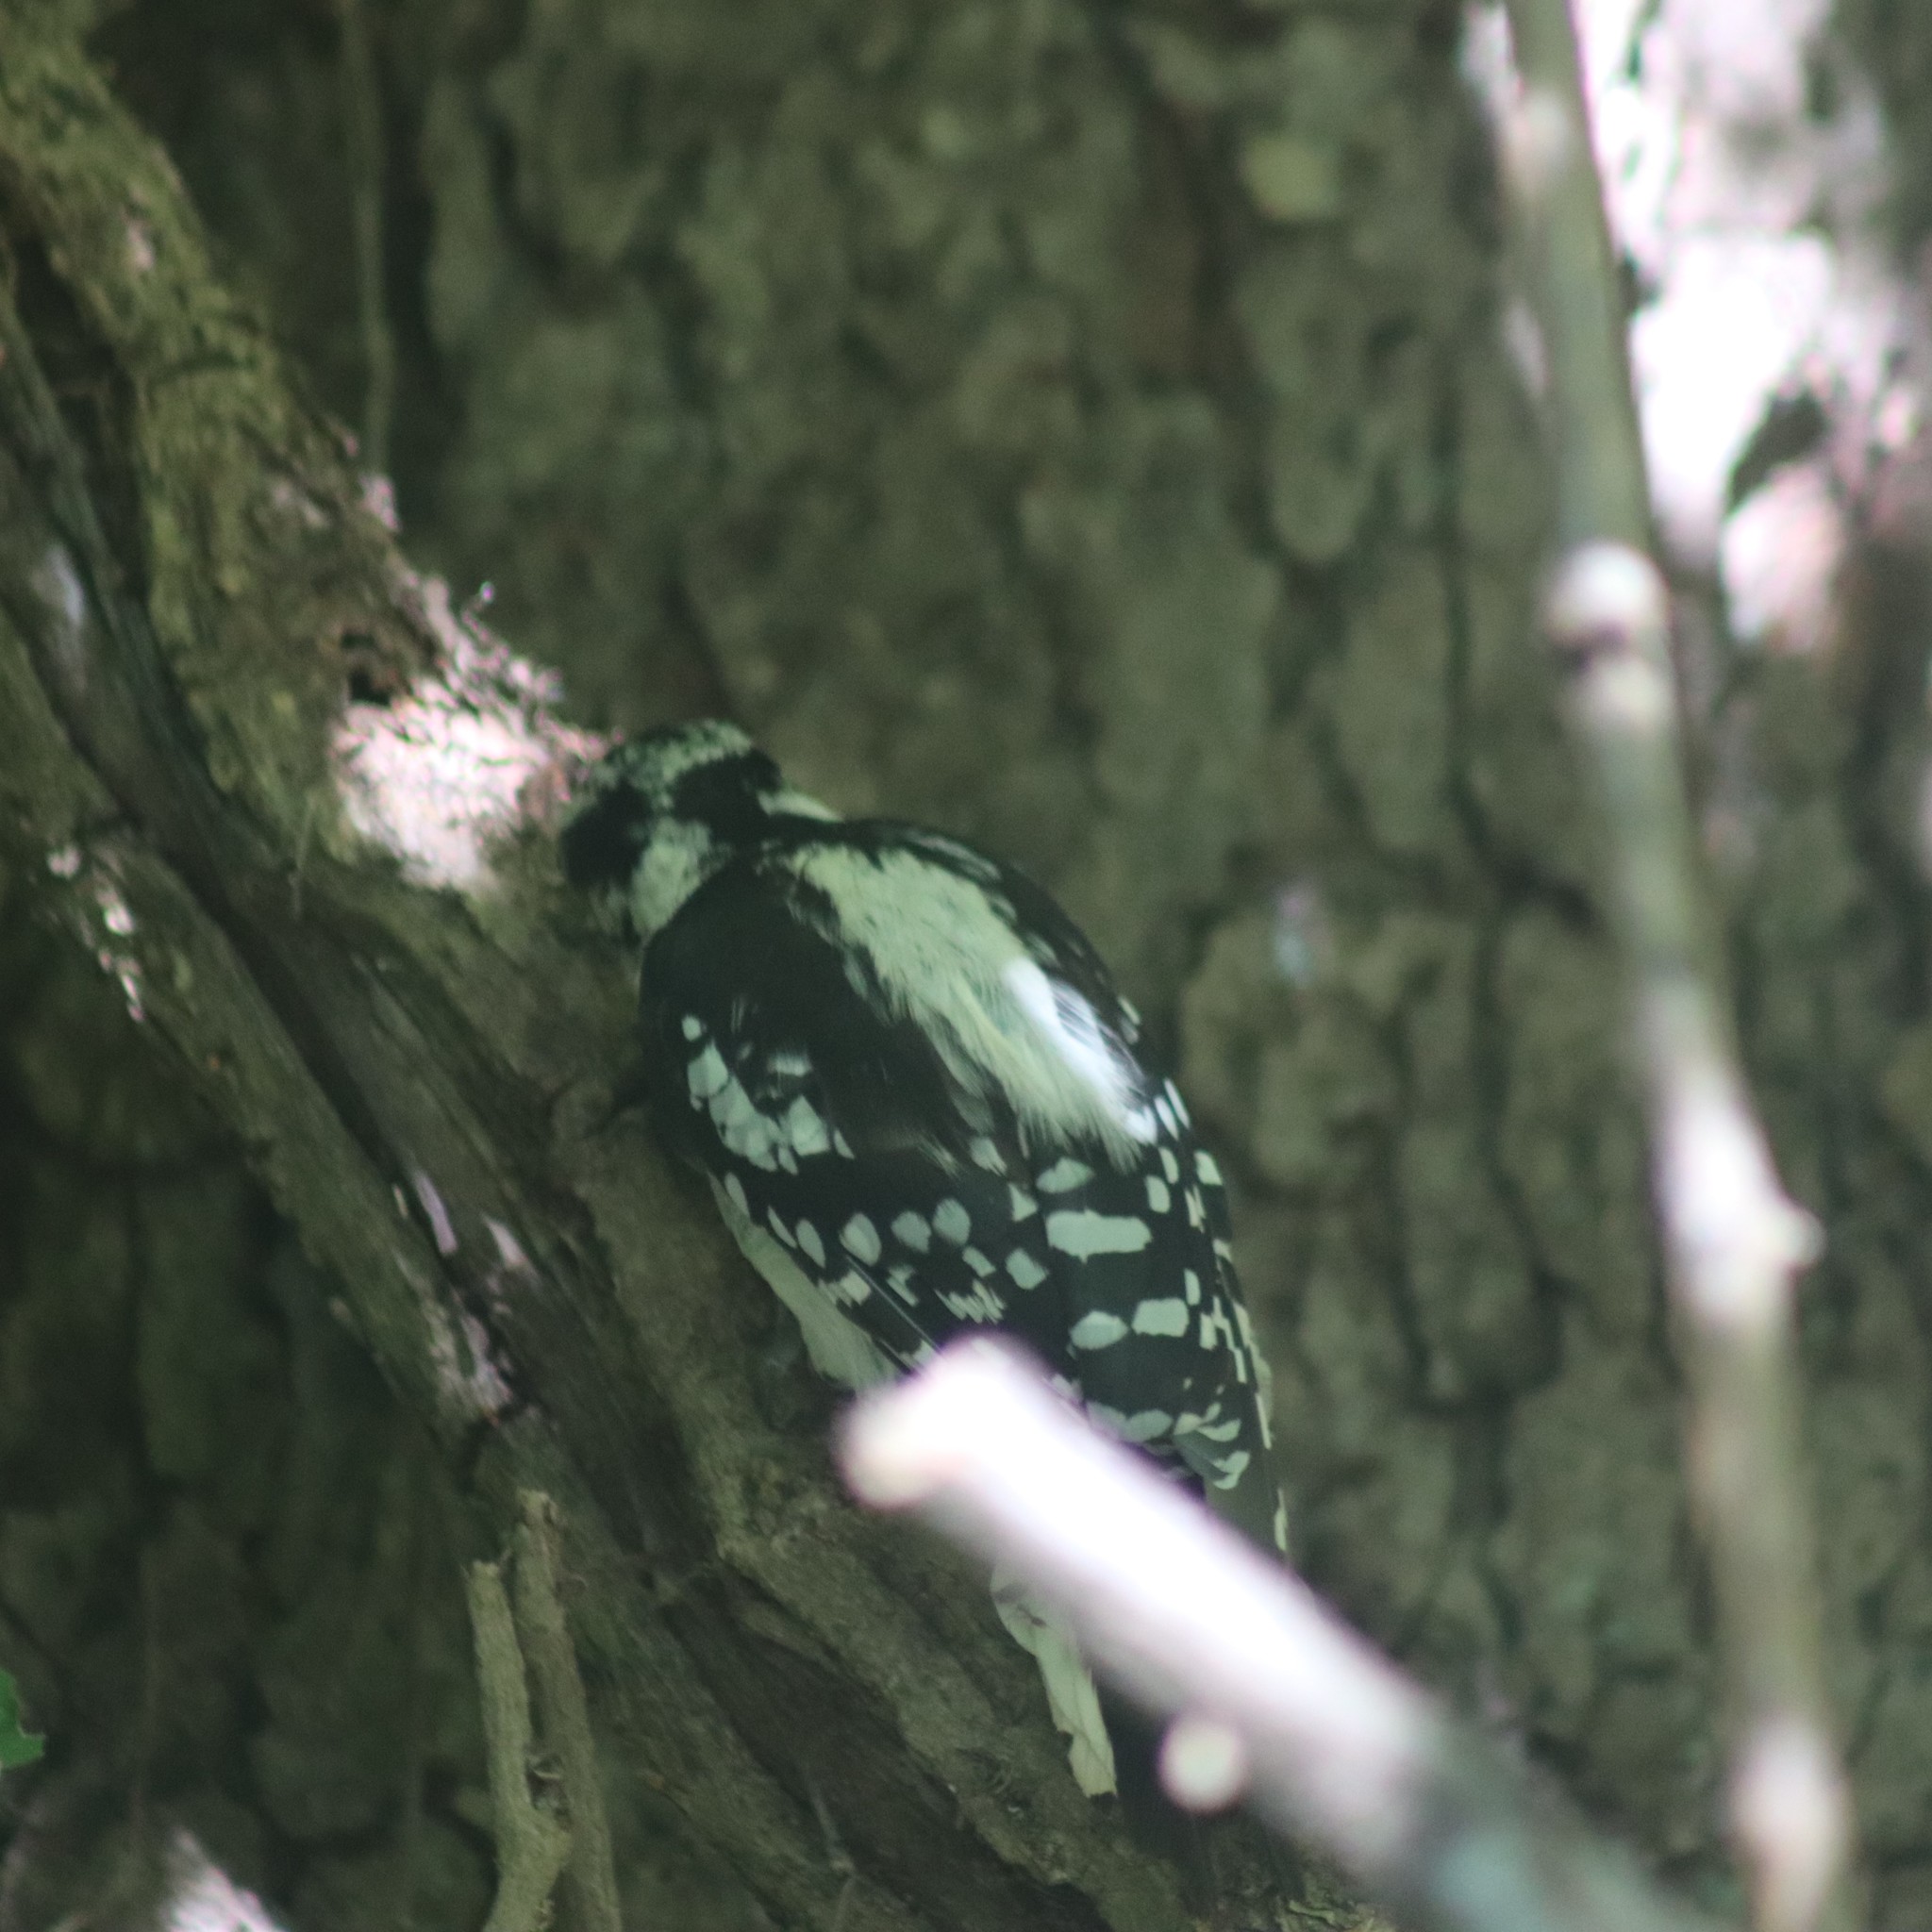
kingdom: Animalia
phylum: Chordata
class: Aves
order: Piciformes
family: Picidae
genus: Dryobates
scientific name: Dryobates pubescens
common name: Downy woodpecker
